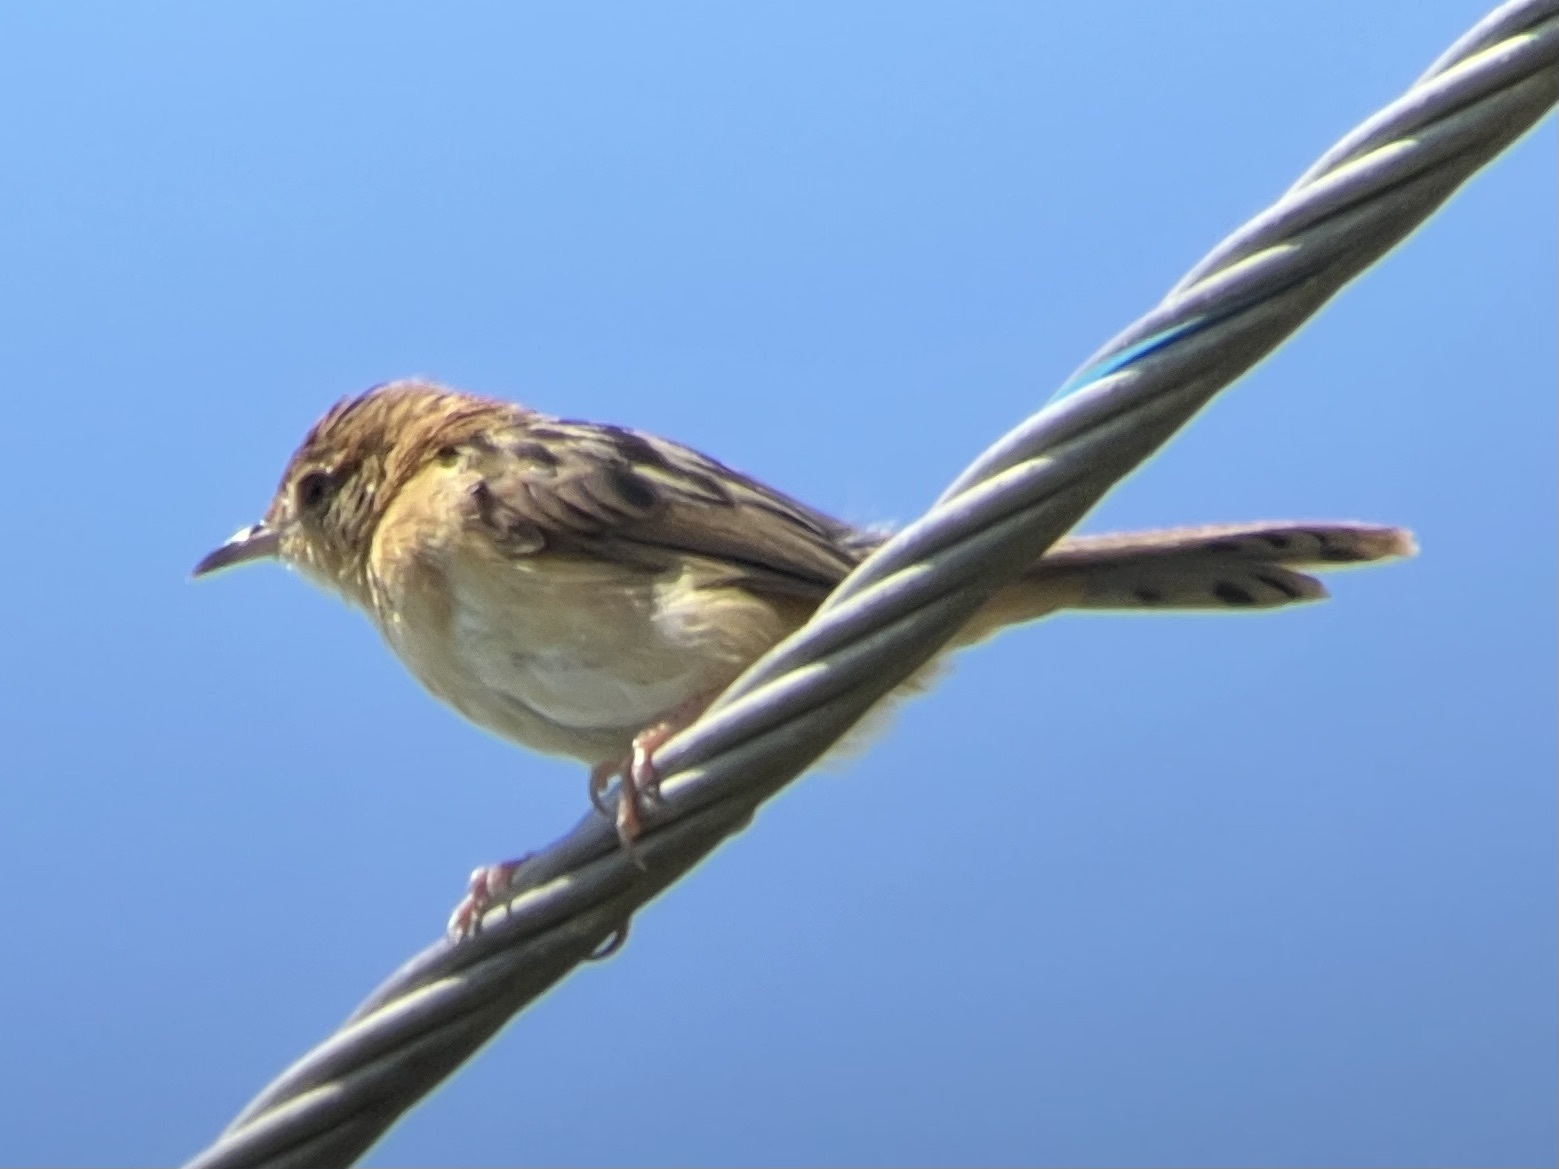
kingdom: Animalia
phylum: Chordata
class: Aves
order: Passeriformes
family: Cisticolidae
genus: Cisticola
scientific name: Cisticola exilis
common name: Golden-headed cisticola
